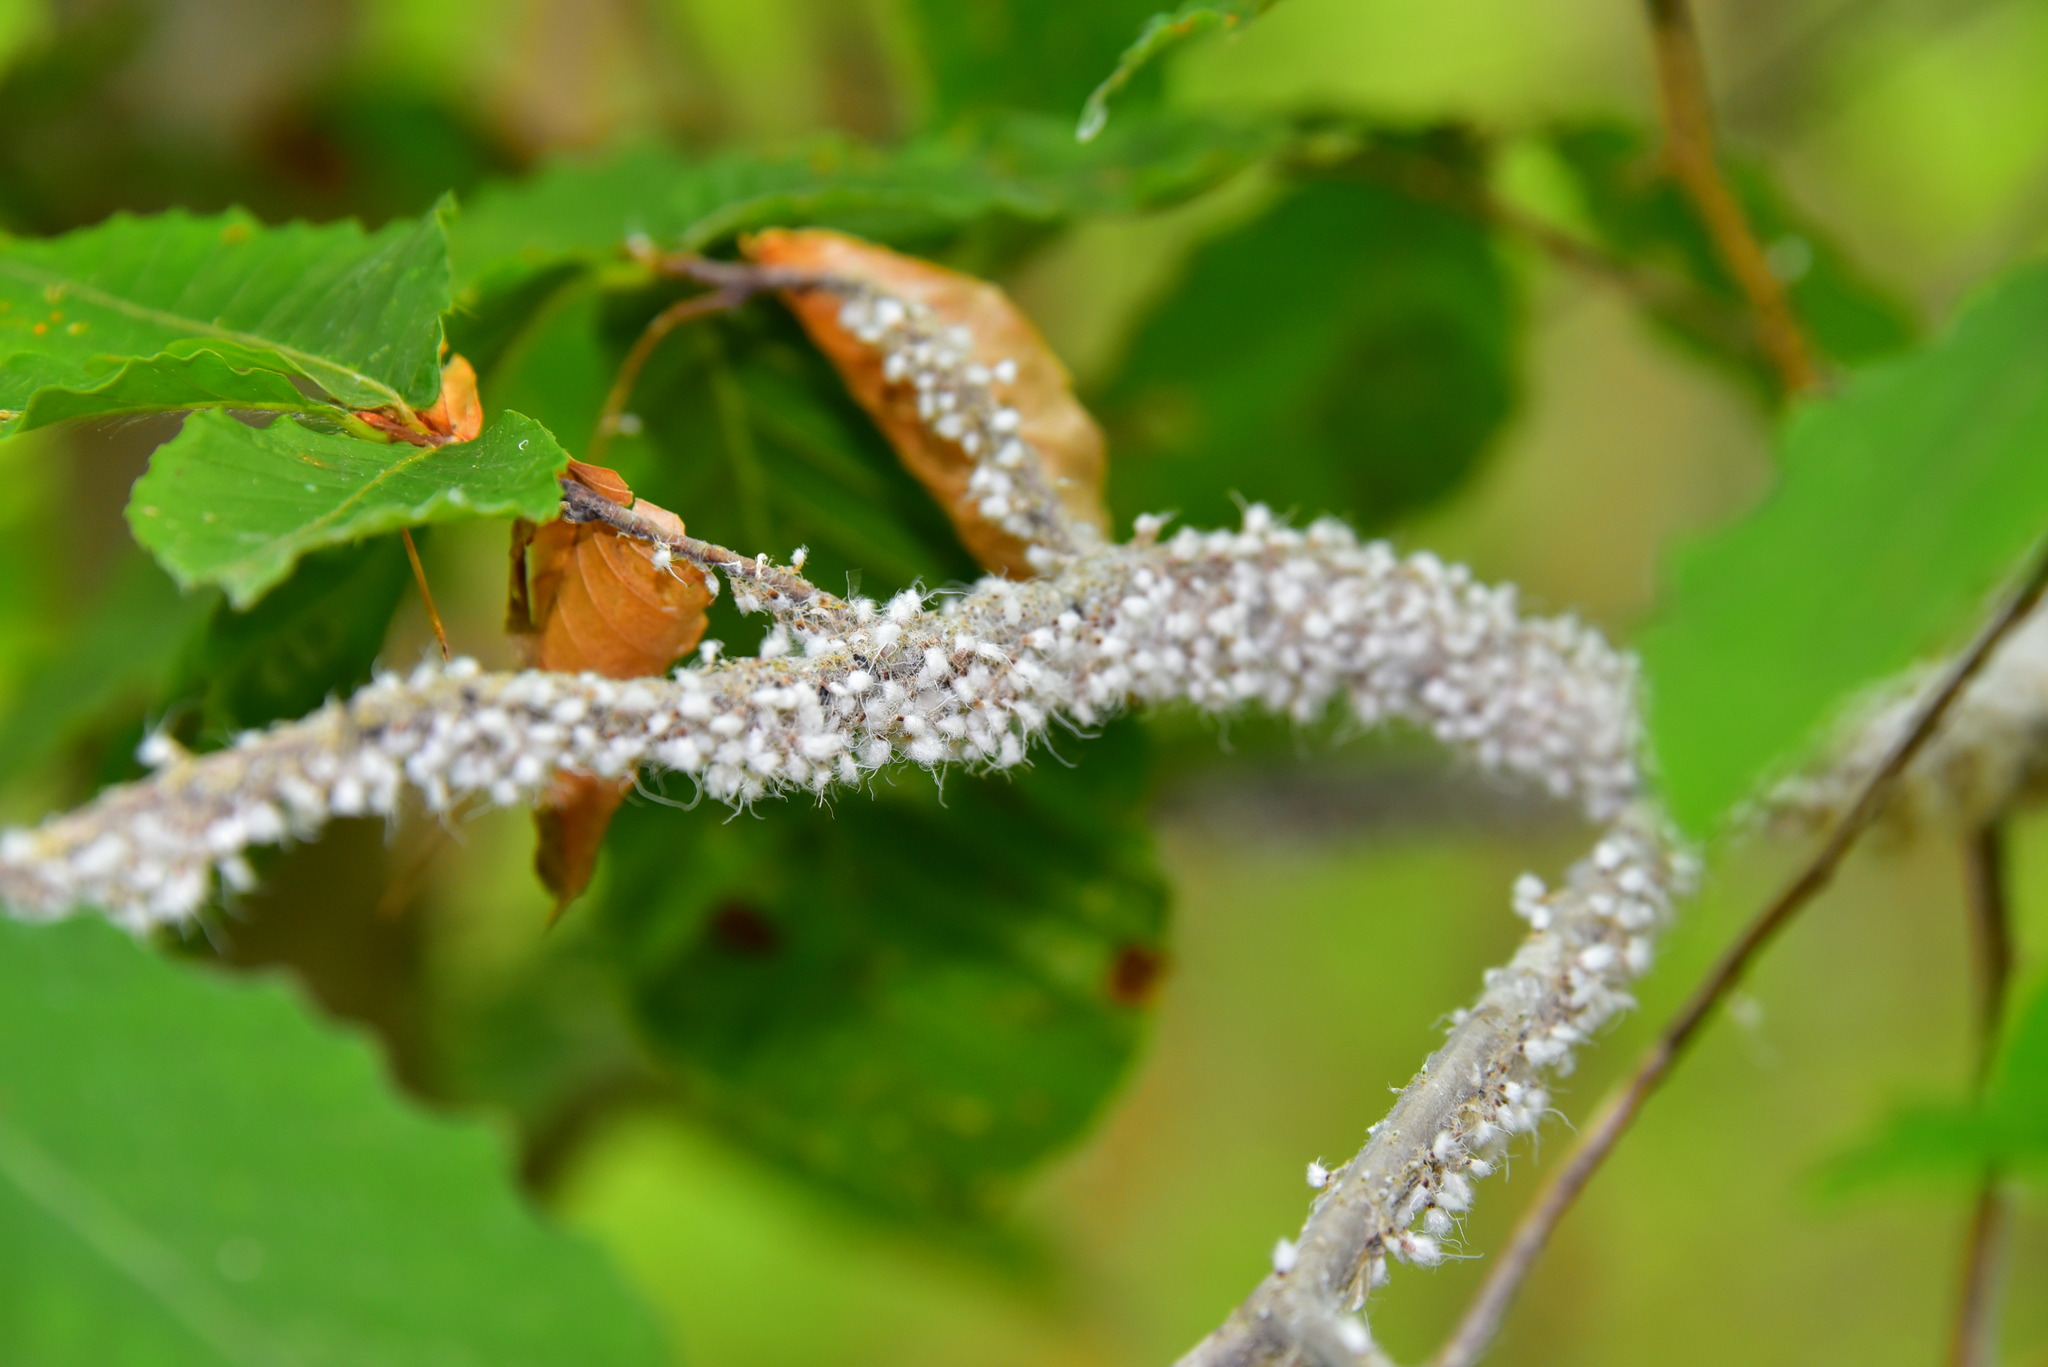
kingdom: Animalia
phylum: Arthropoda
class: Insecta
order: Hemiptera
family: Aphididae
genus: Grylloprociphilus
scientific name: Grylloprociphilus imbricator
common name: Beech blight aphid
